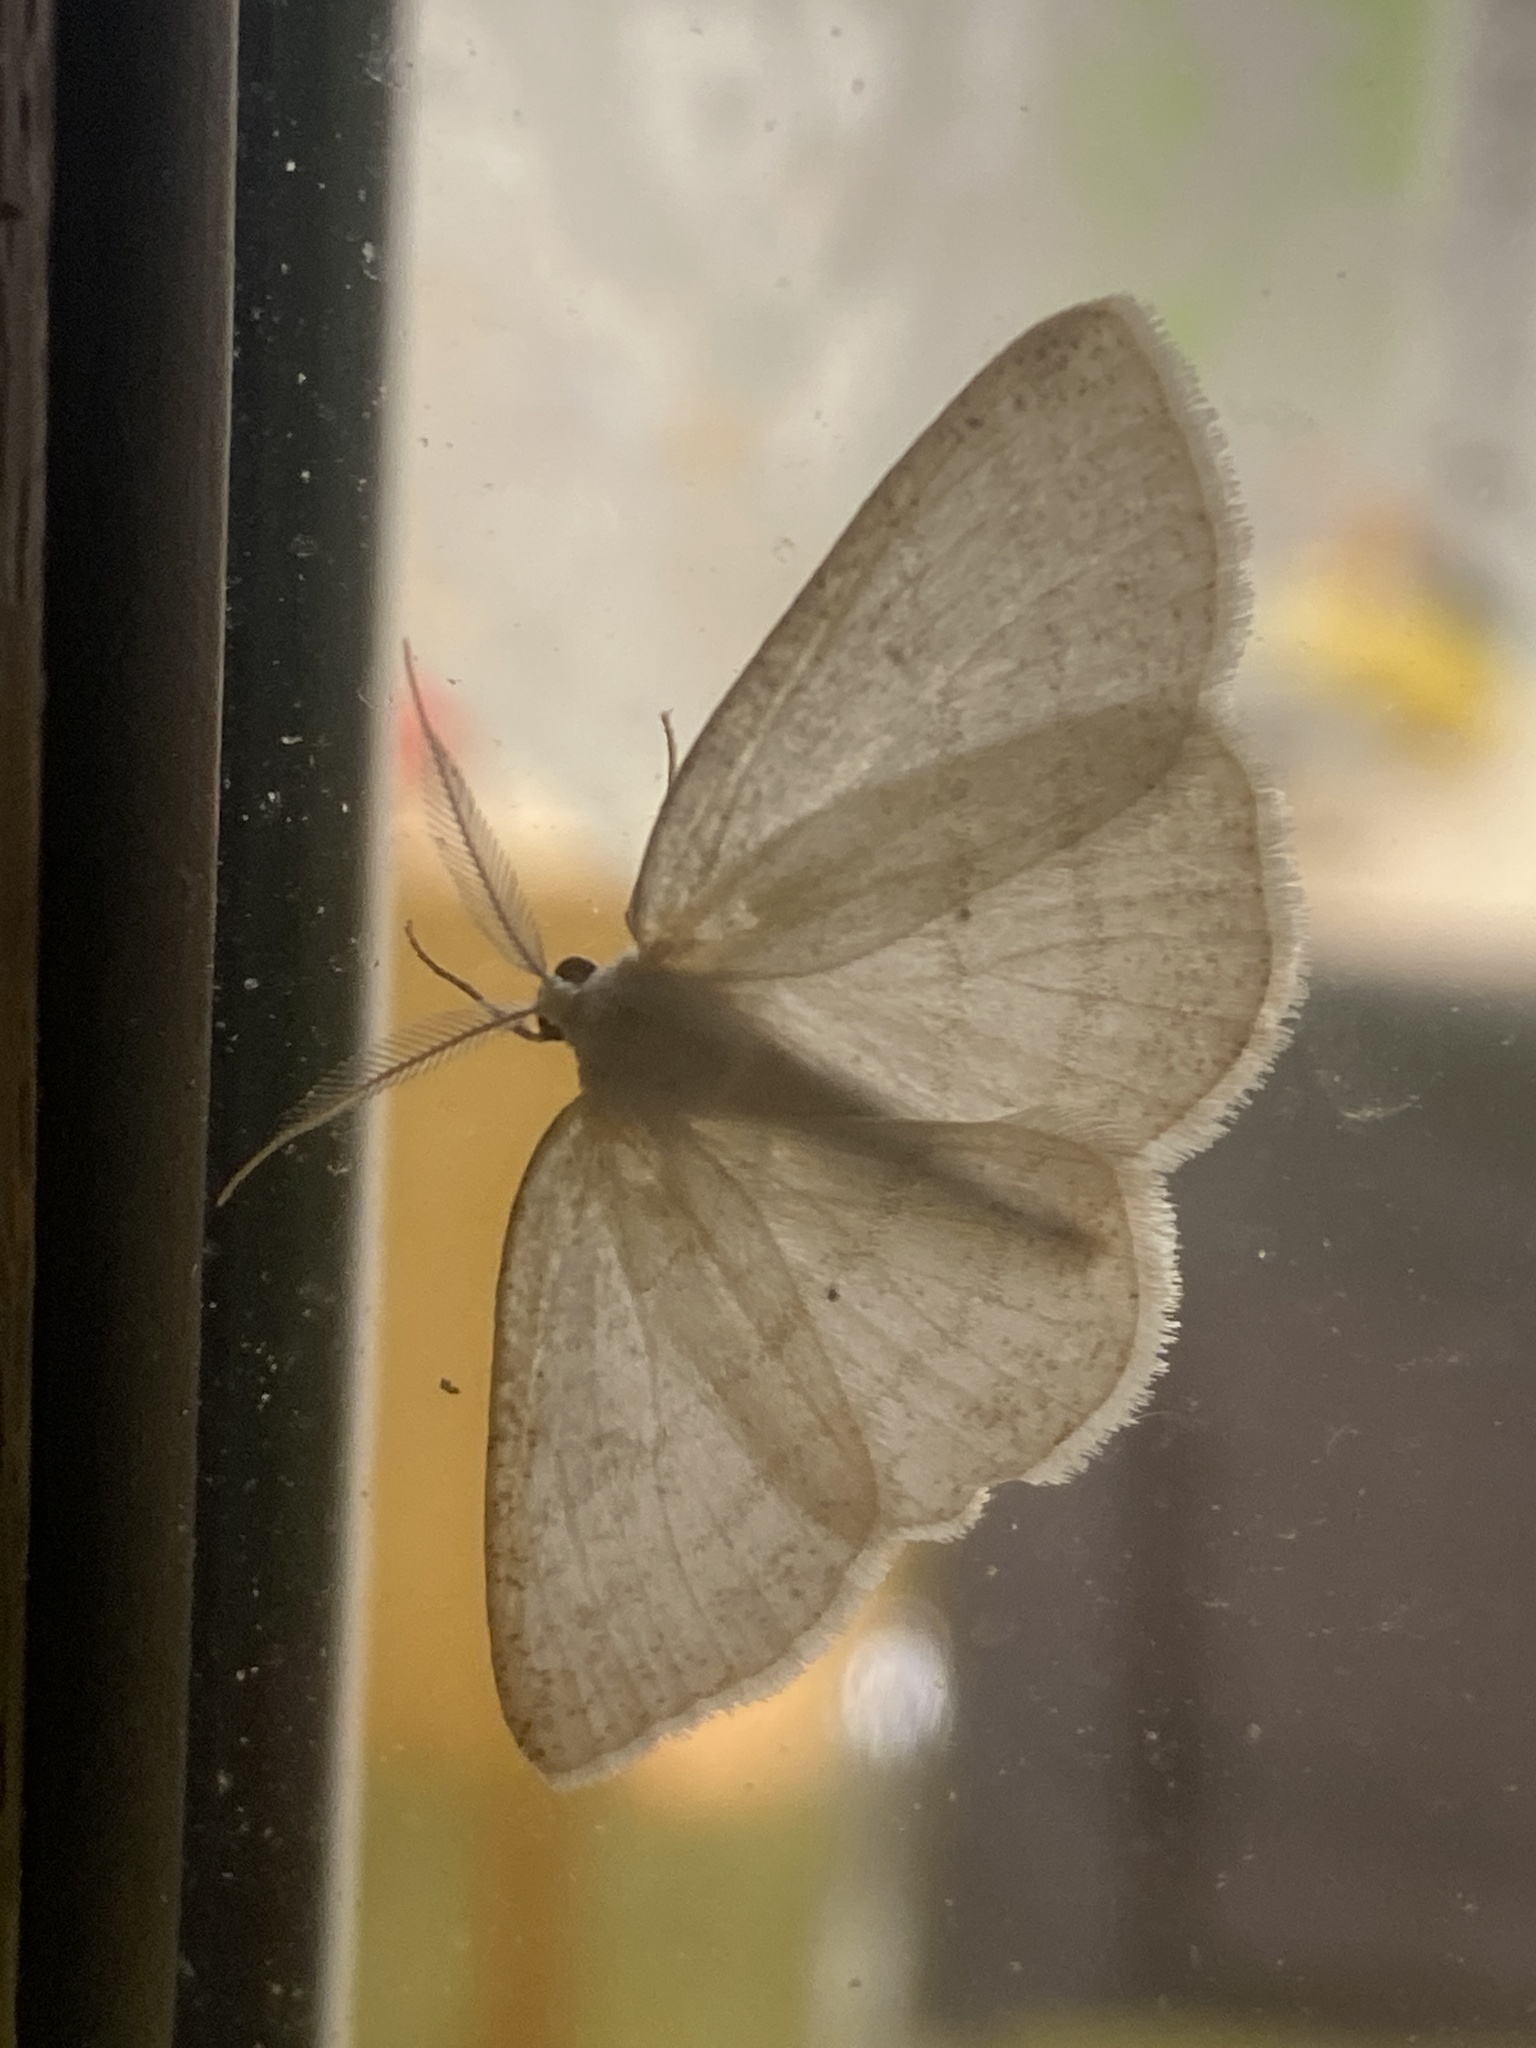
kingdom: Animalia
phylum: Arthropoda
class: Insecta
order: Lepidoptera
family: Geometridae
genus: Cabera
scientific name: Cabera pusaria
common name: Common white wave
